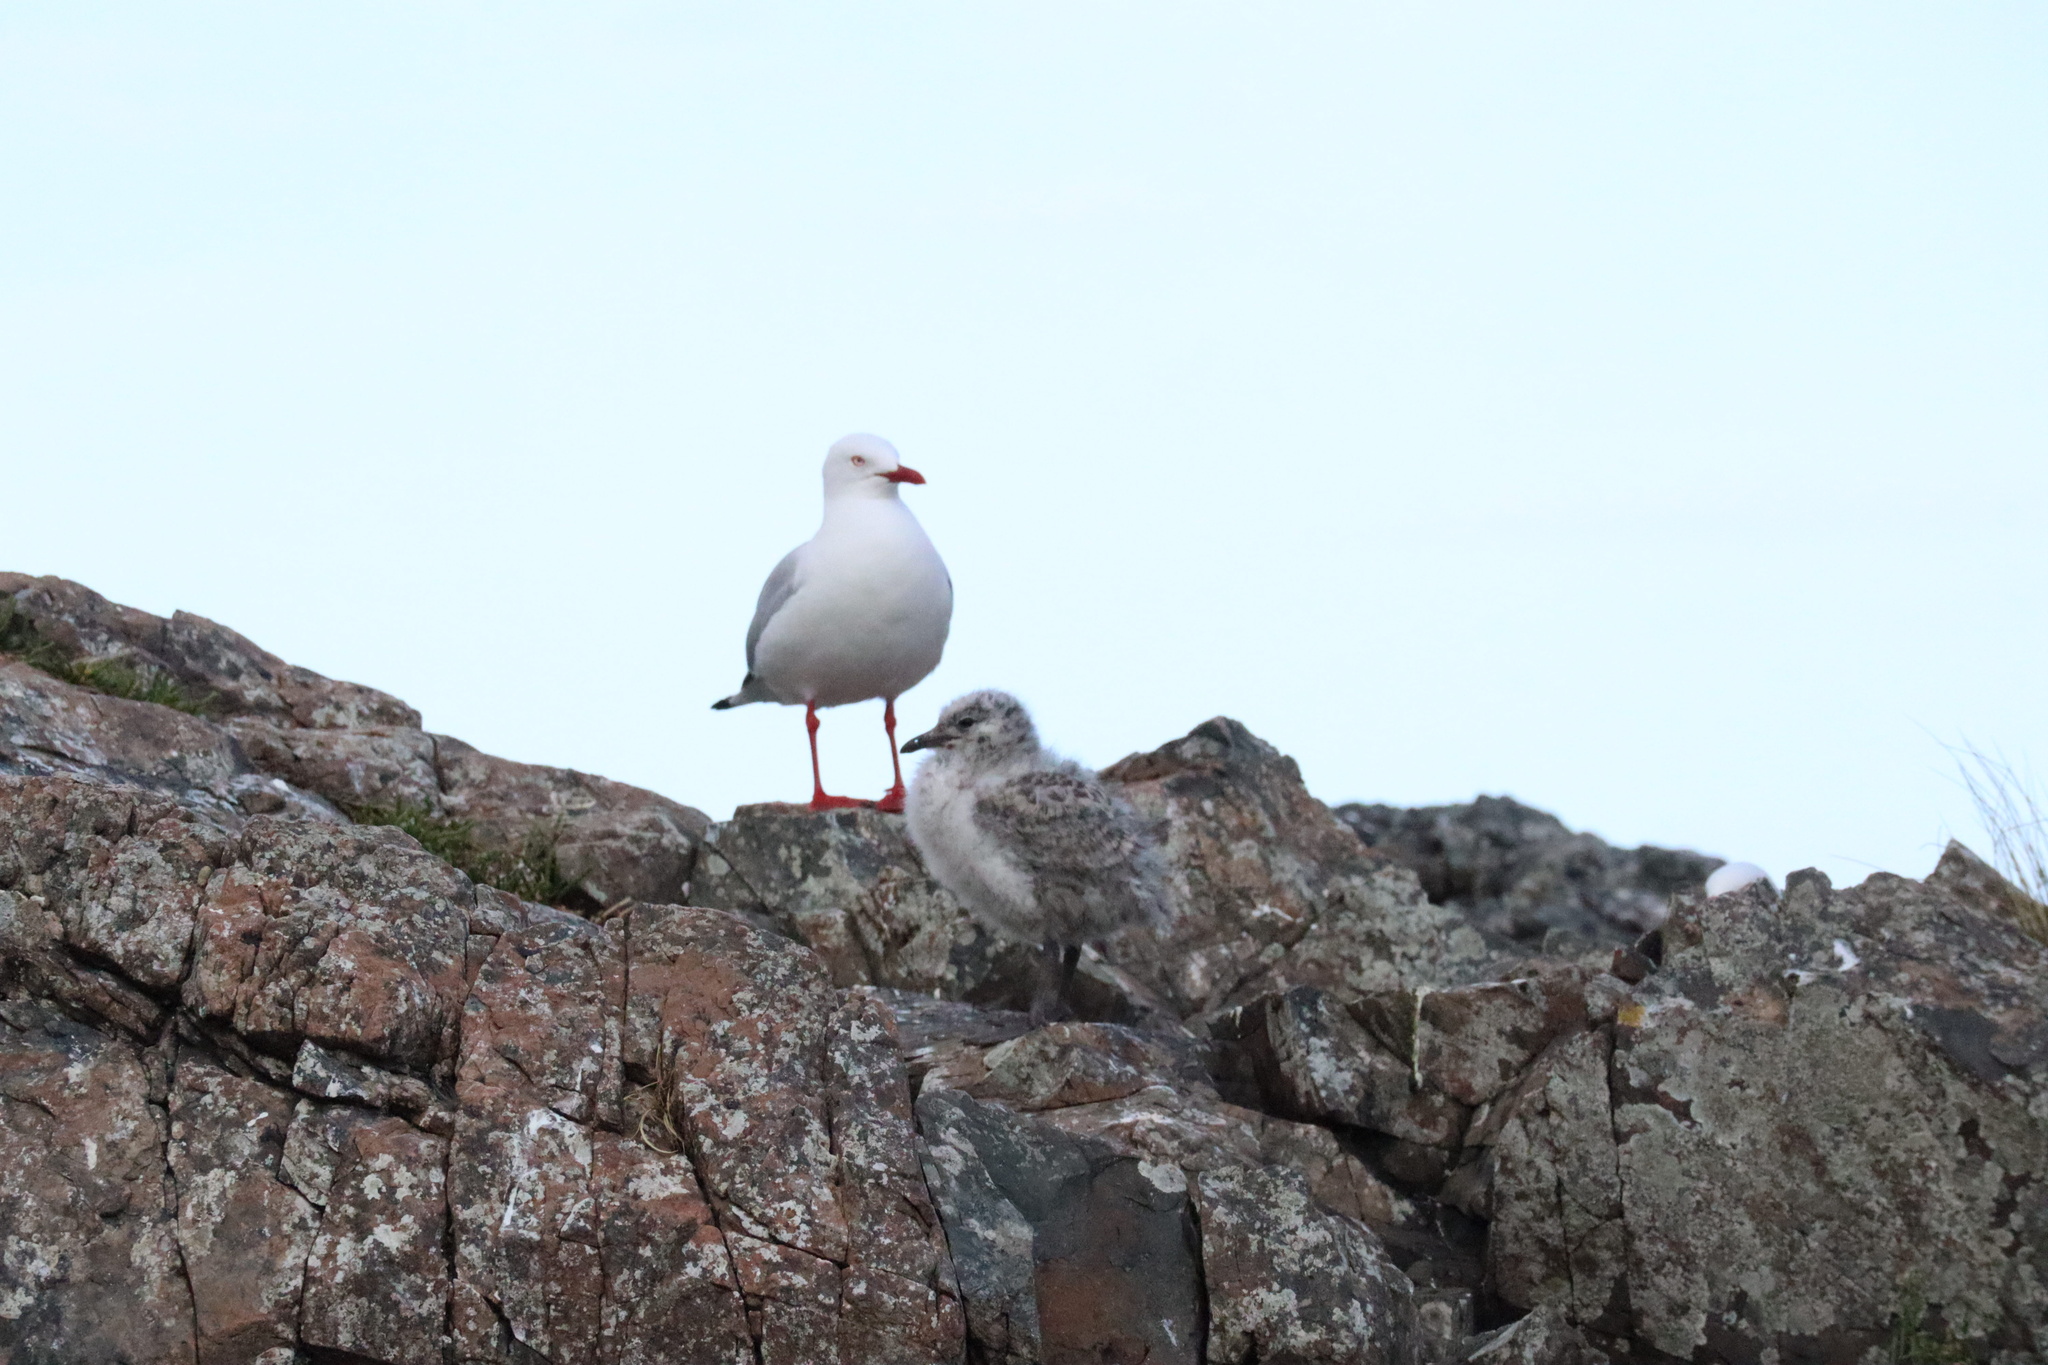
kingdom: Animalia
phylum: Chordata
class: Aves
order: Charadriiformes
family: Laridae
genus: Chroicocephalus
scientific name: Chroicocephalus novaehollandiae
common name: Silver gull
